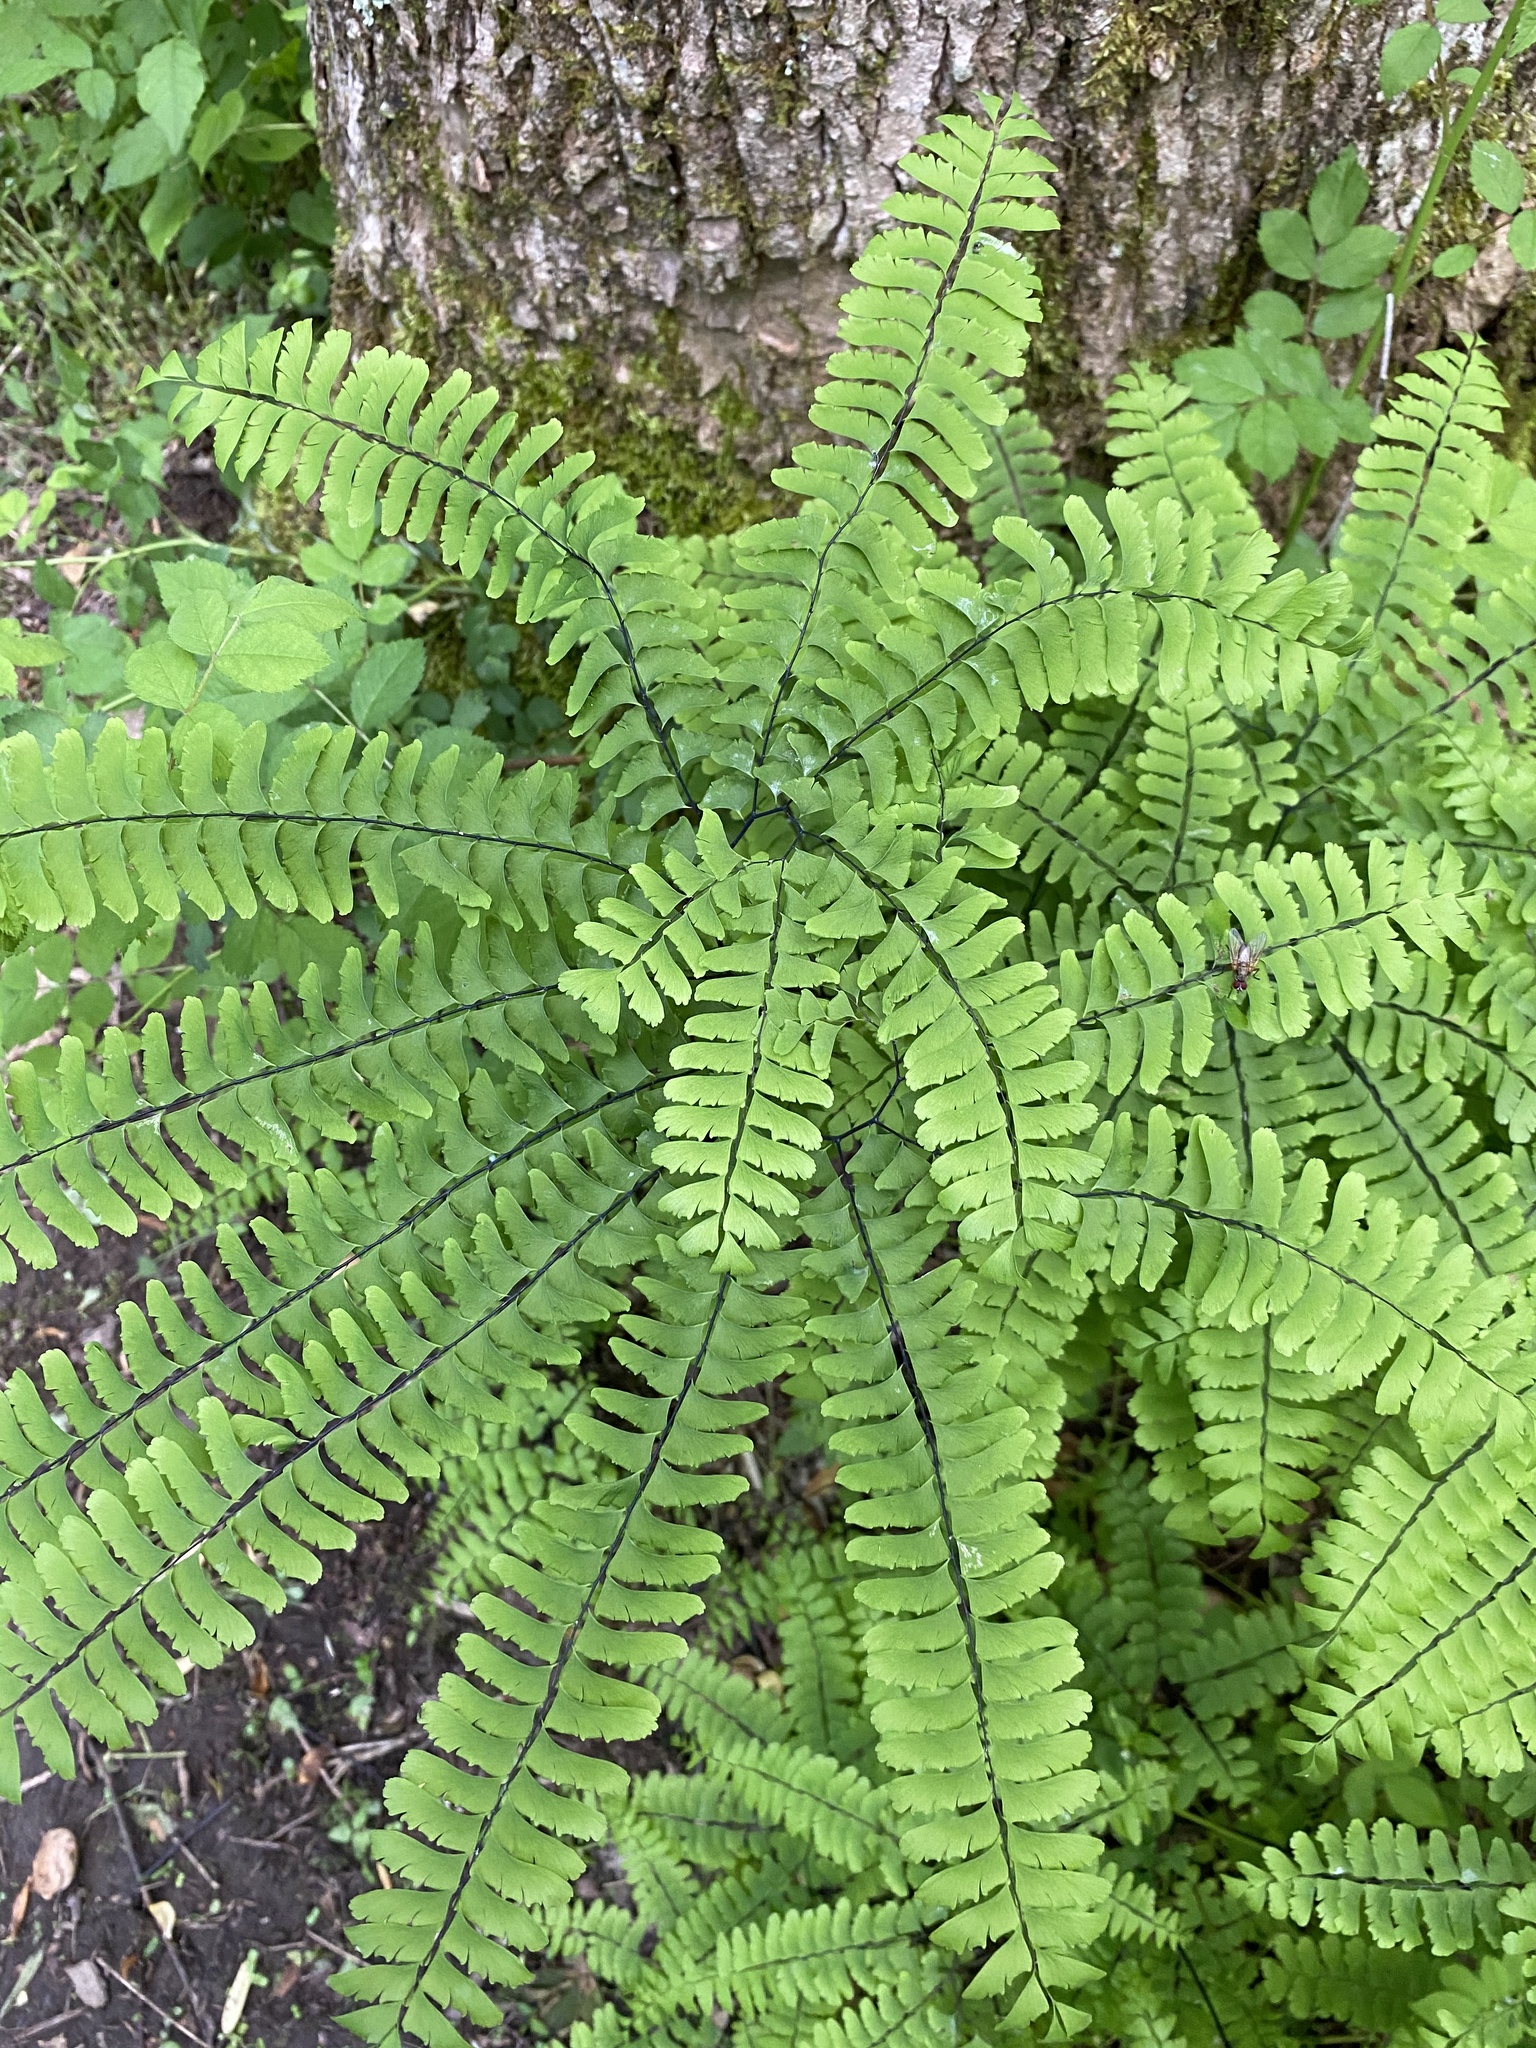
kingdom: Plantae
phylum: Tracheophyta
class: Polypodiopsida
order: Polypodiales
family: Pteridaceae
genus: Adiantum
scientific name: Adiantum pedatum
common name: Five-finger fern
